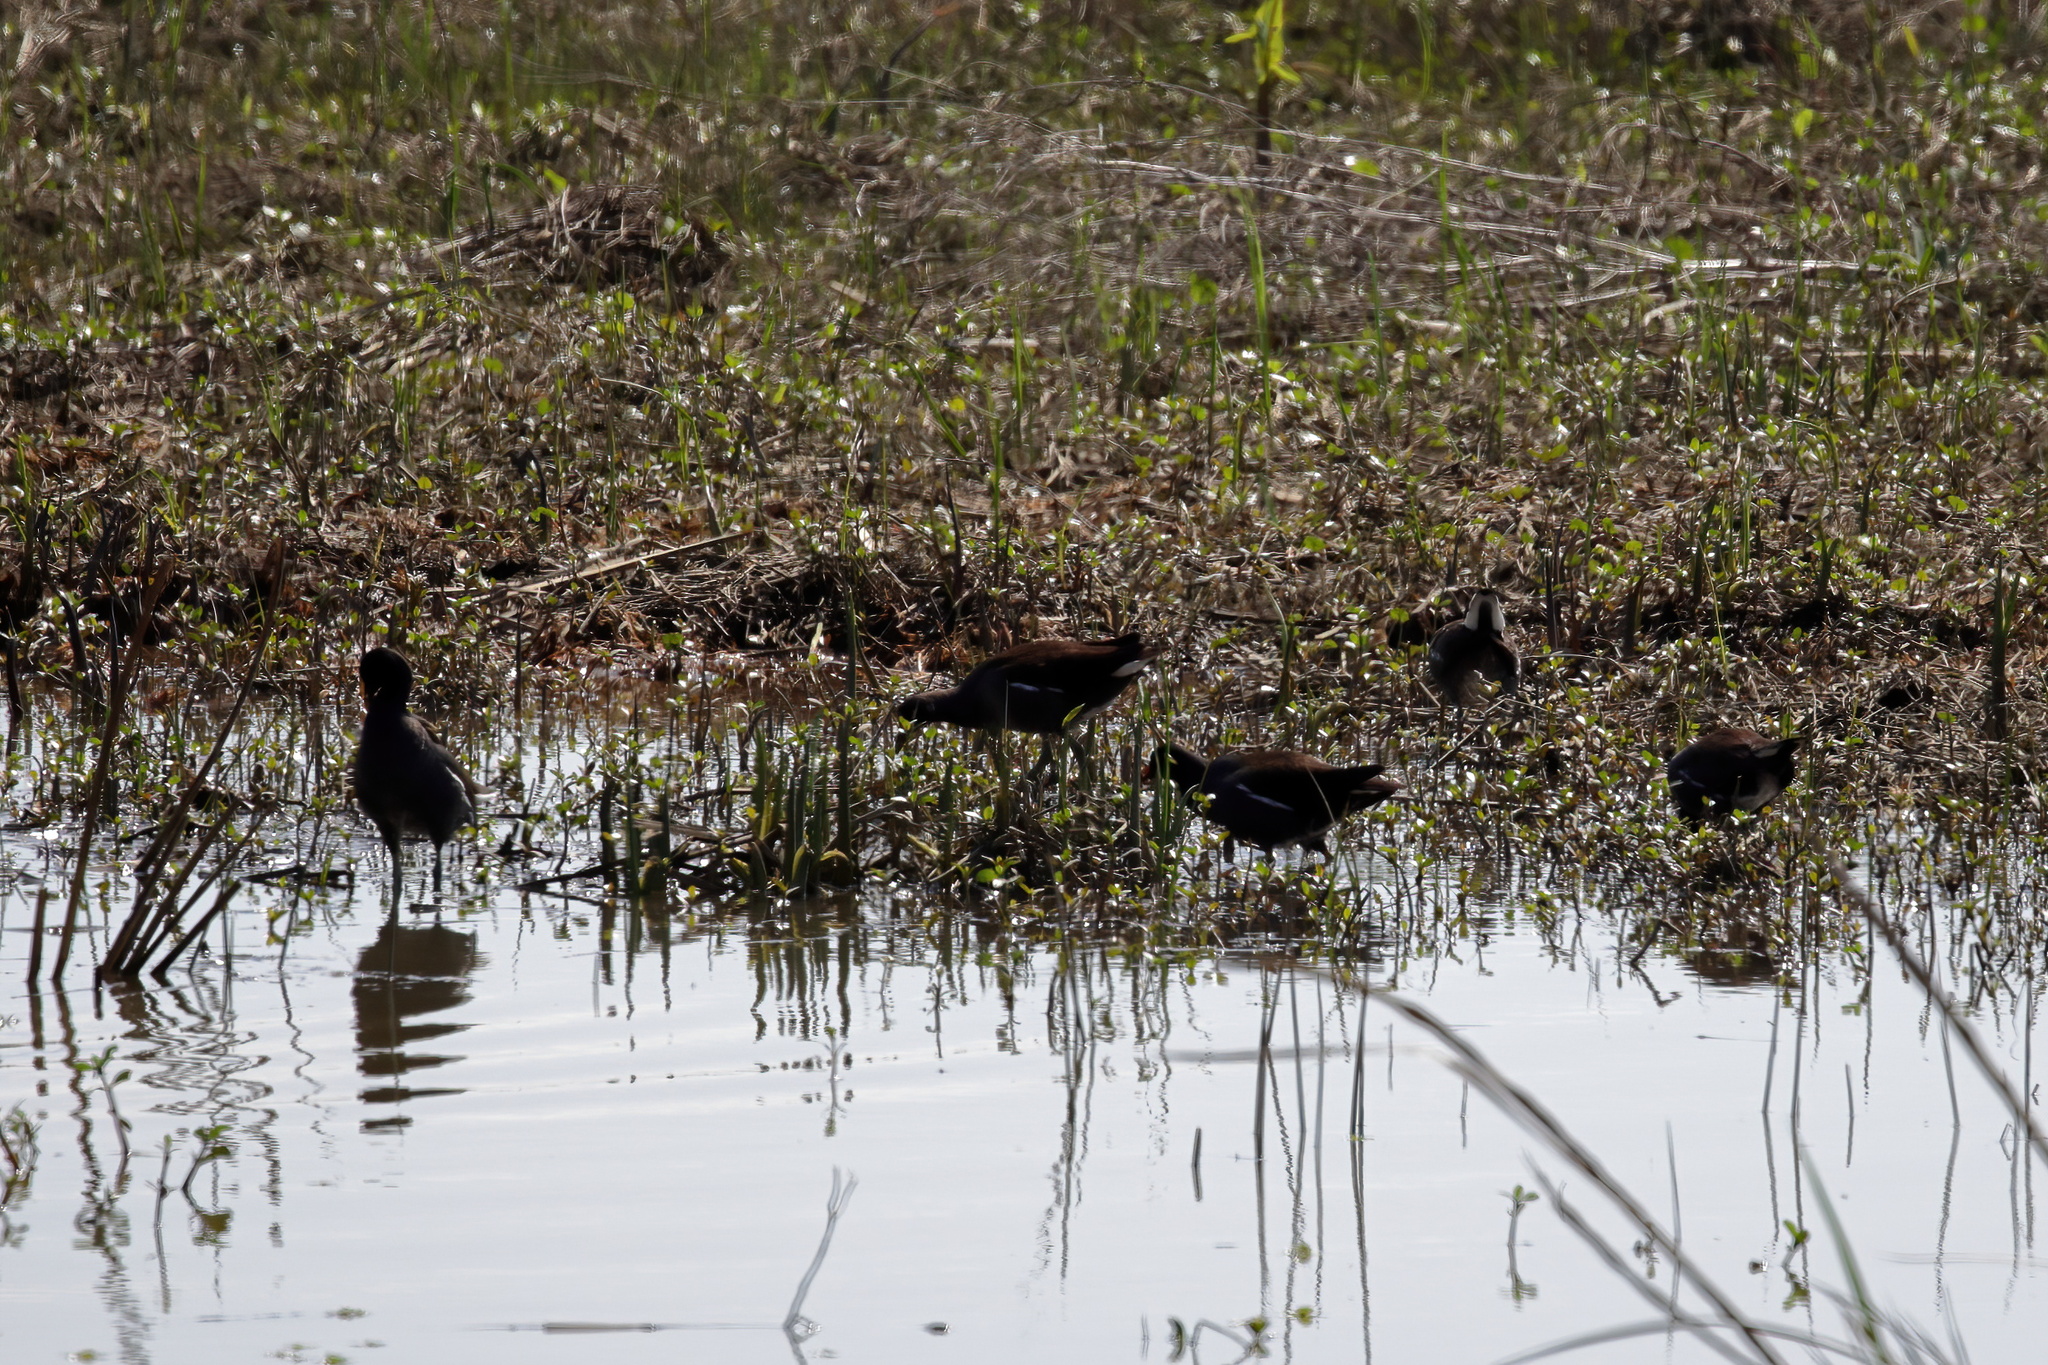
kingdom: Animalia
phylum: Chordata
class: Aves
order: Gruiformes
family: Rallidae
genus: Gallinula
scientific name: Gallinula chloropus
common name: Common moorhen
